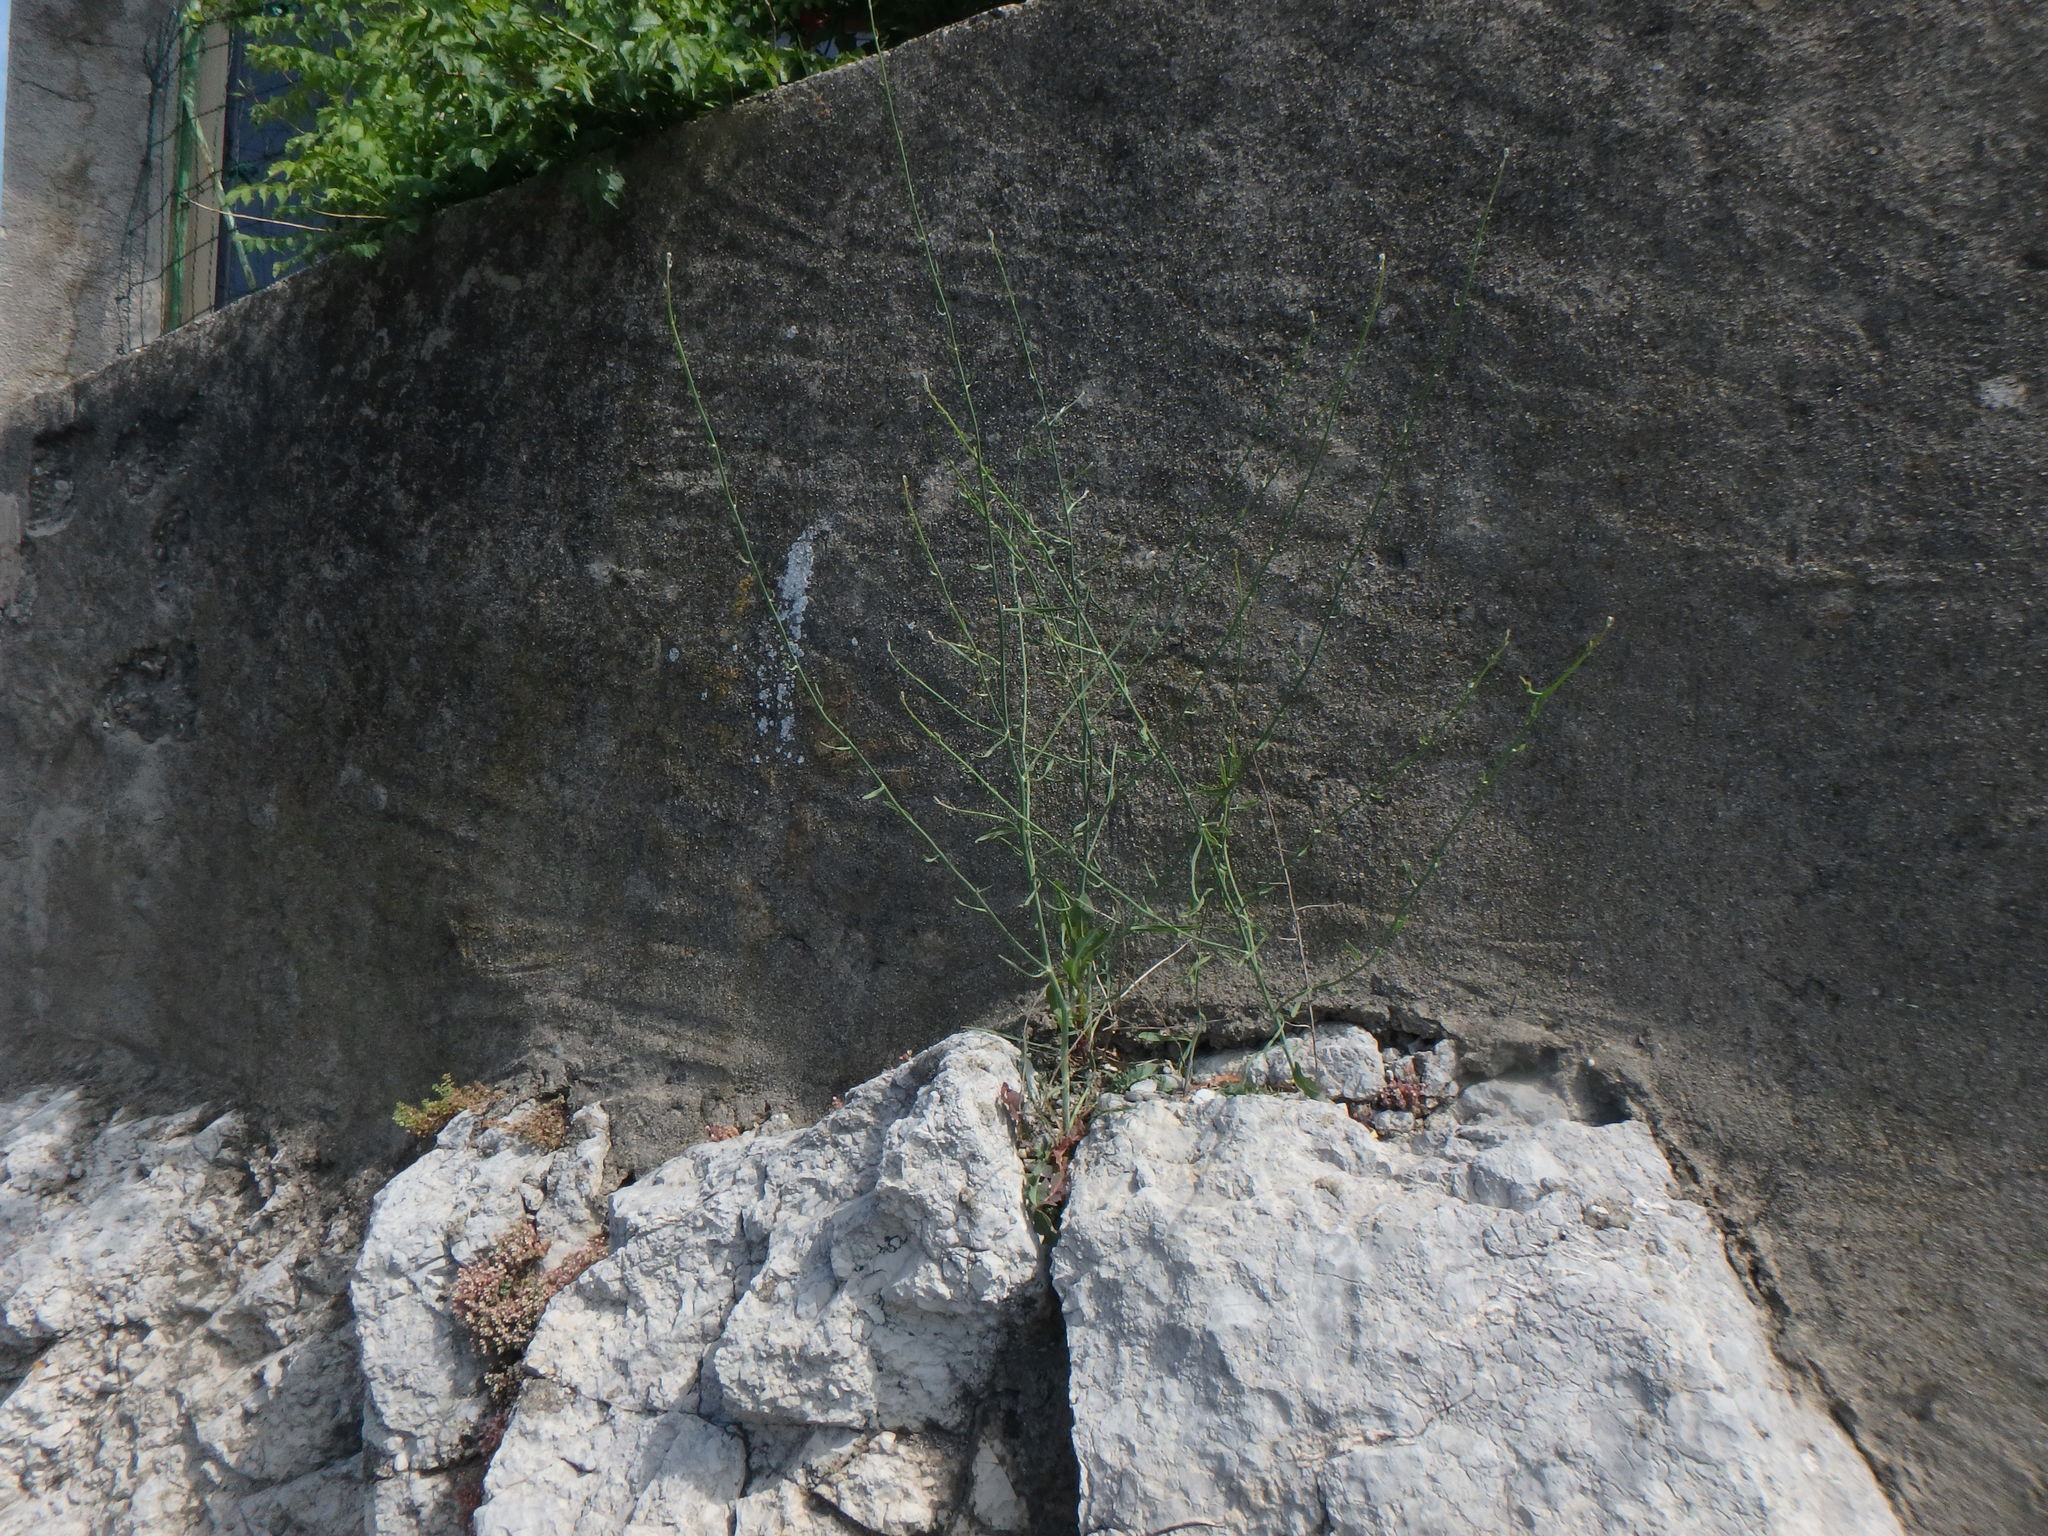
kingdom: Plantae
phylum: Tracheophyta
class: Magnoliopsida
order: Asterales
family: Asteraceae
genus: Chondrilla
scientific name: Chondrilla juncea
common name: Skeleton weed
